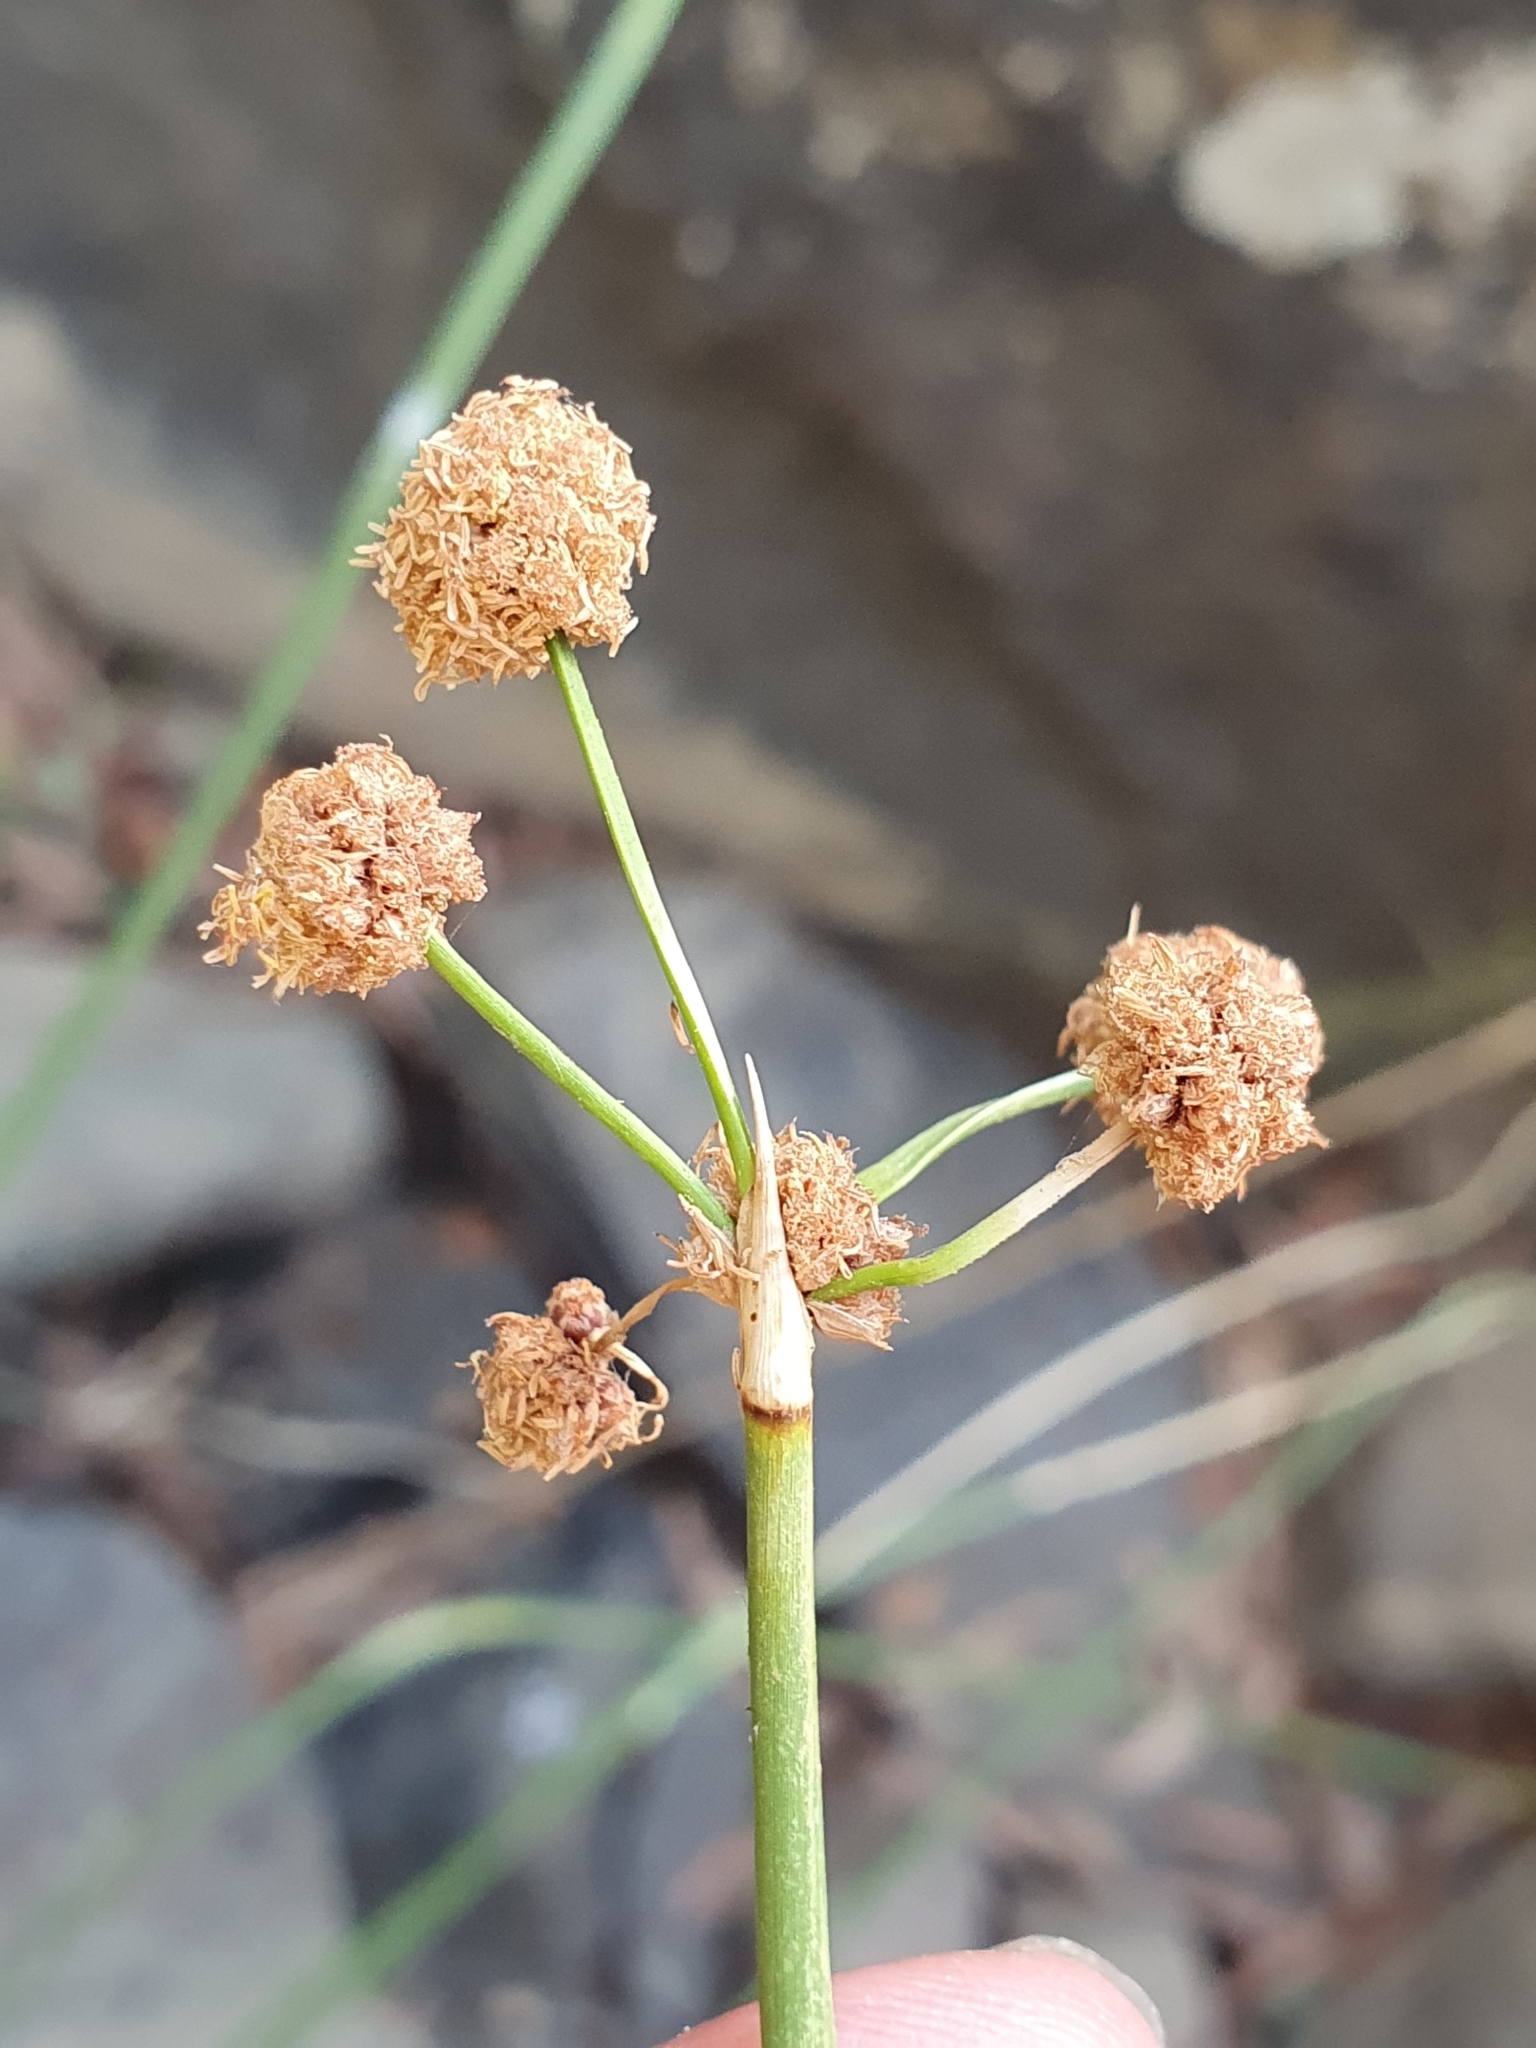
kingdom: Plantae
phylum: Tracheophyta
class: Liliopsida
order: Poales
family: Cyperaceae
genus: Scirpoides
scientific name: Scirpoides holoschoenus
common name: Round-headed club-rush
